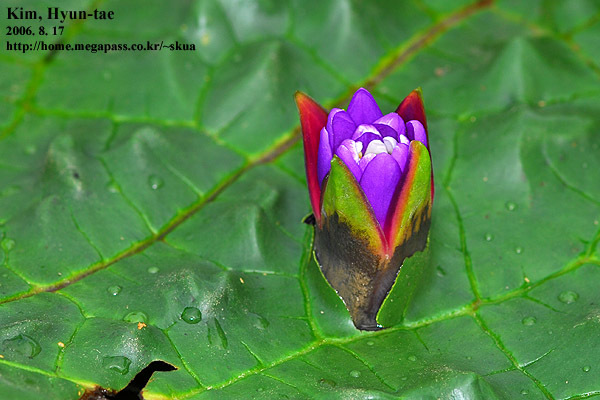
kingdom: Plantae
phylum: Tracheophyta
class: Magnoliopsida
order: Nymphaeales
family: Nymphaeaceae
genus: Euryale
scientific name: Euryale ferox
